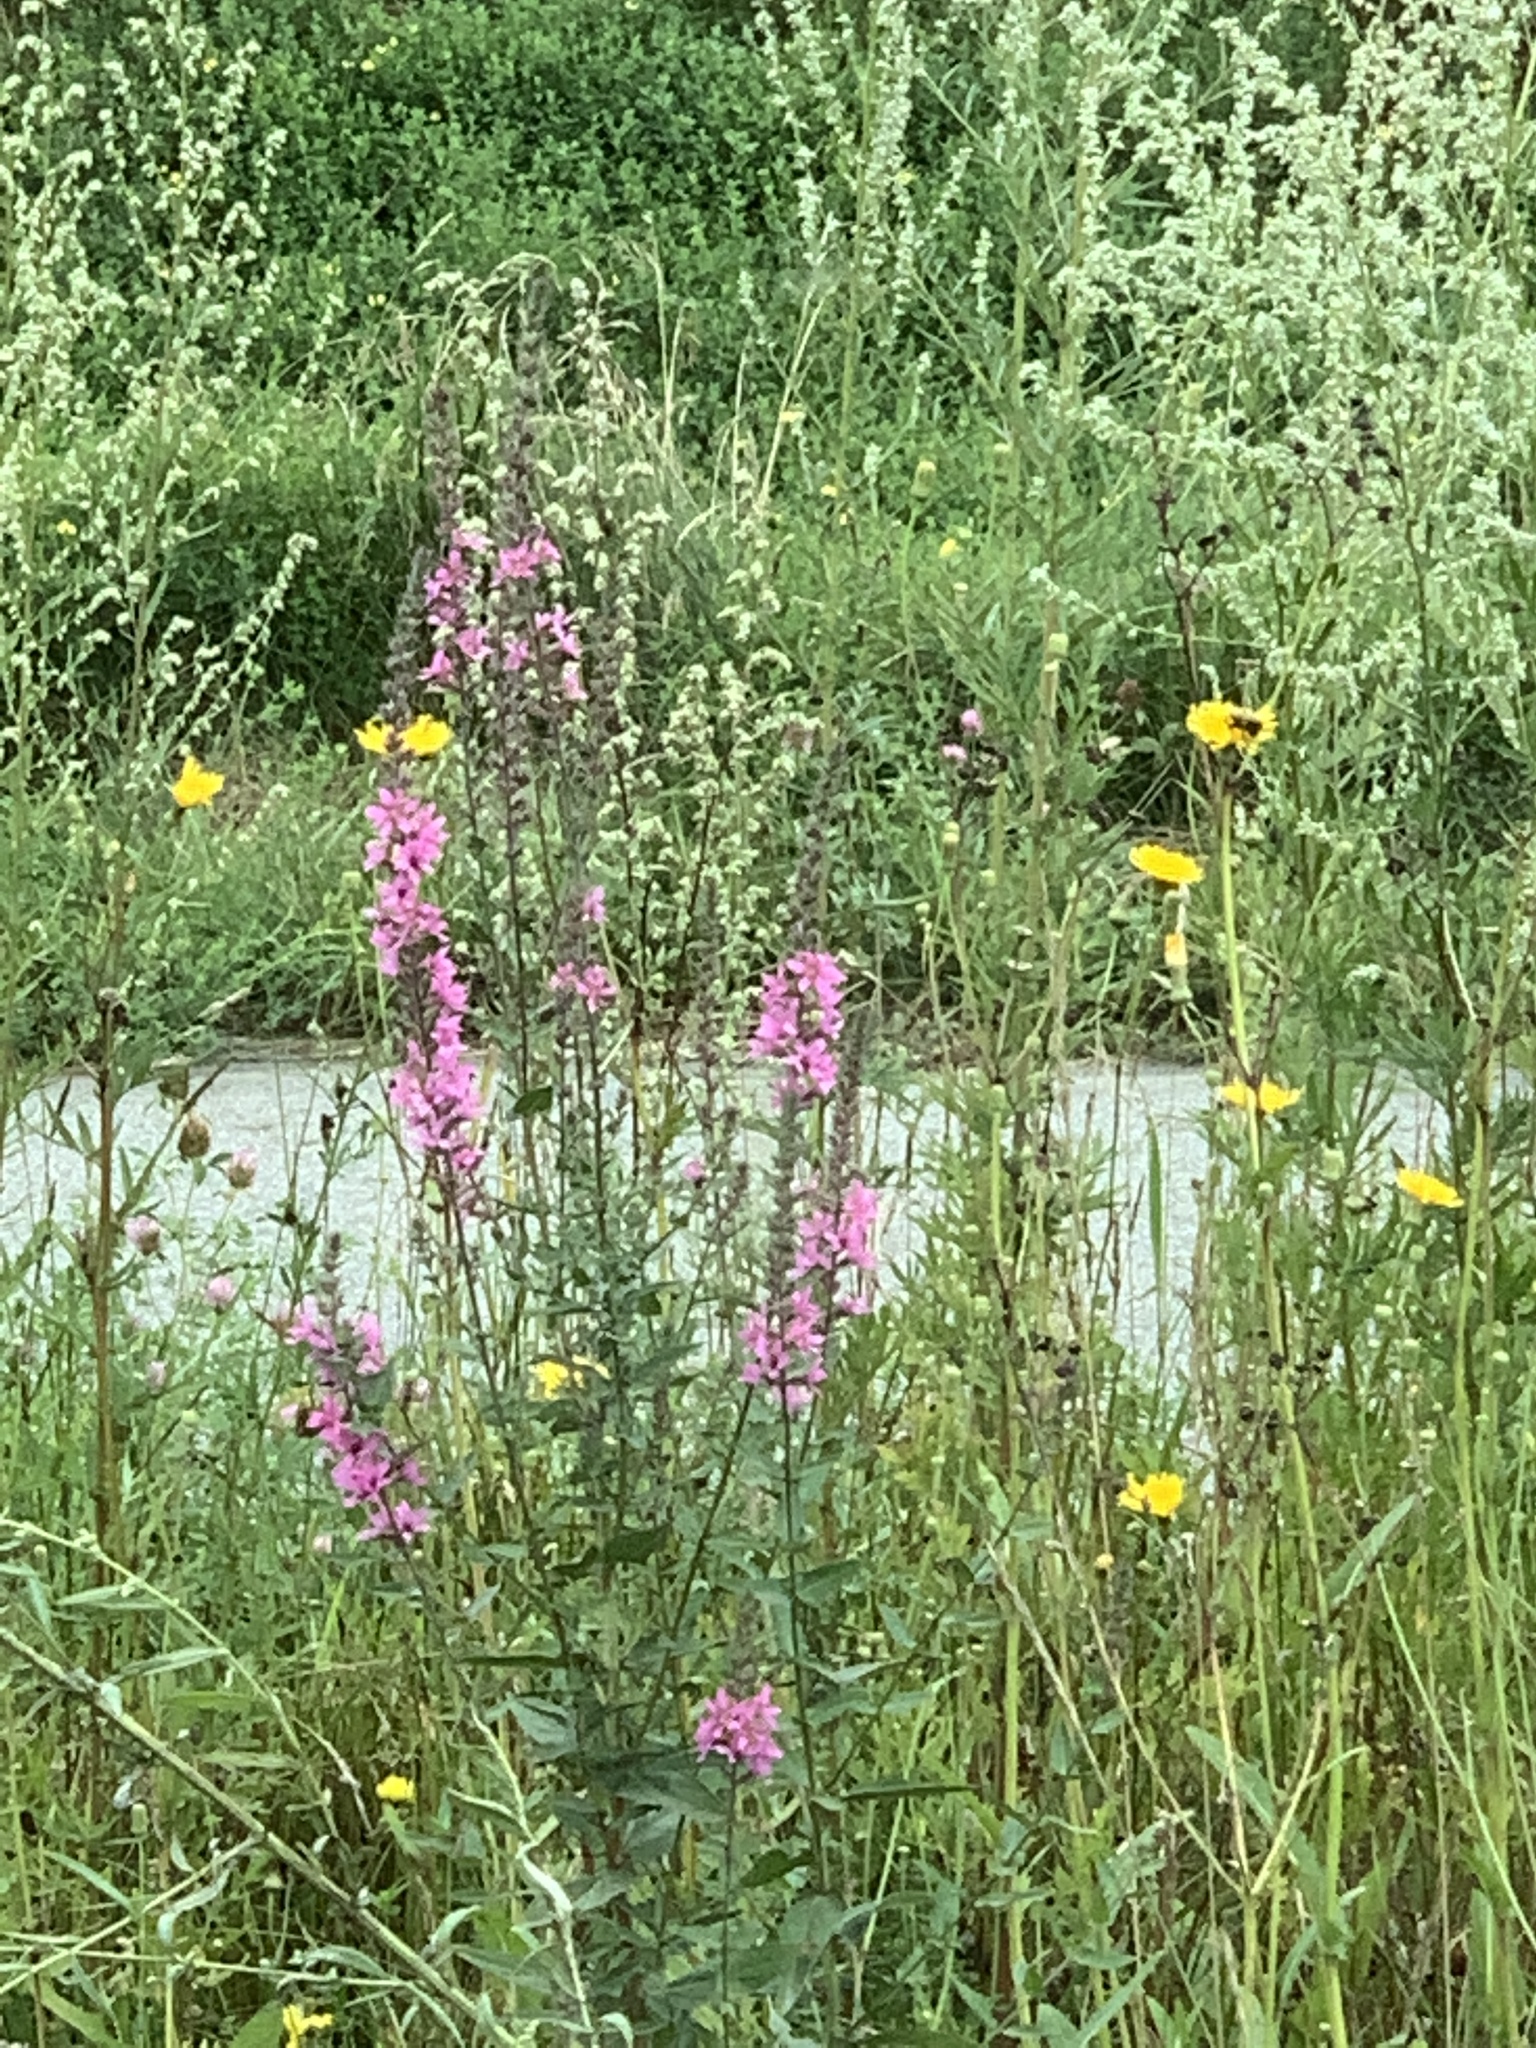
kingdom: Plantae
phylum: Tracheophyta
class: Magnoliopsida
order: Myrtales
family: Lythraceae
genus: Lythrum
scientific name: Lythrum salicaria
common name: Purple loosestrife
